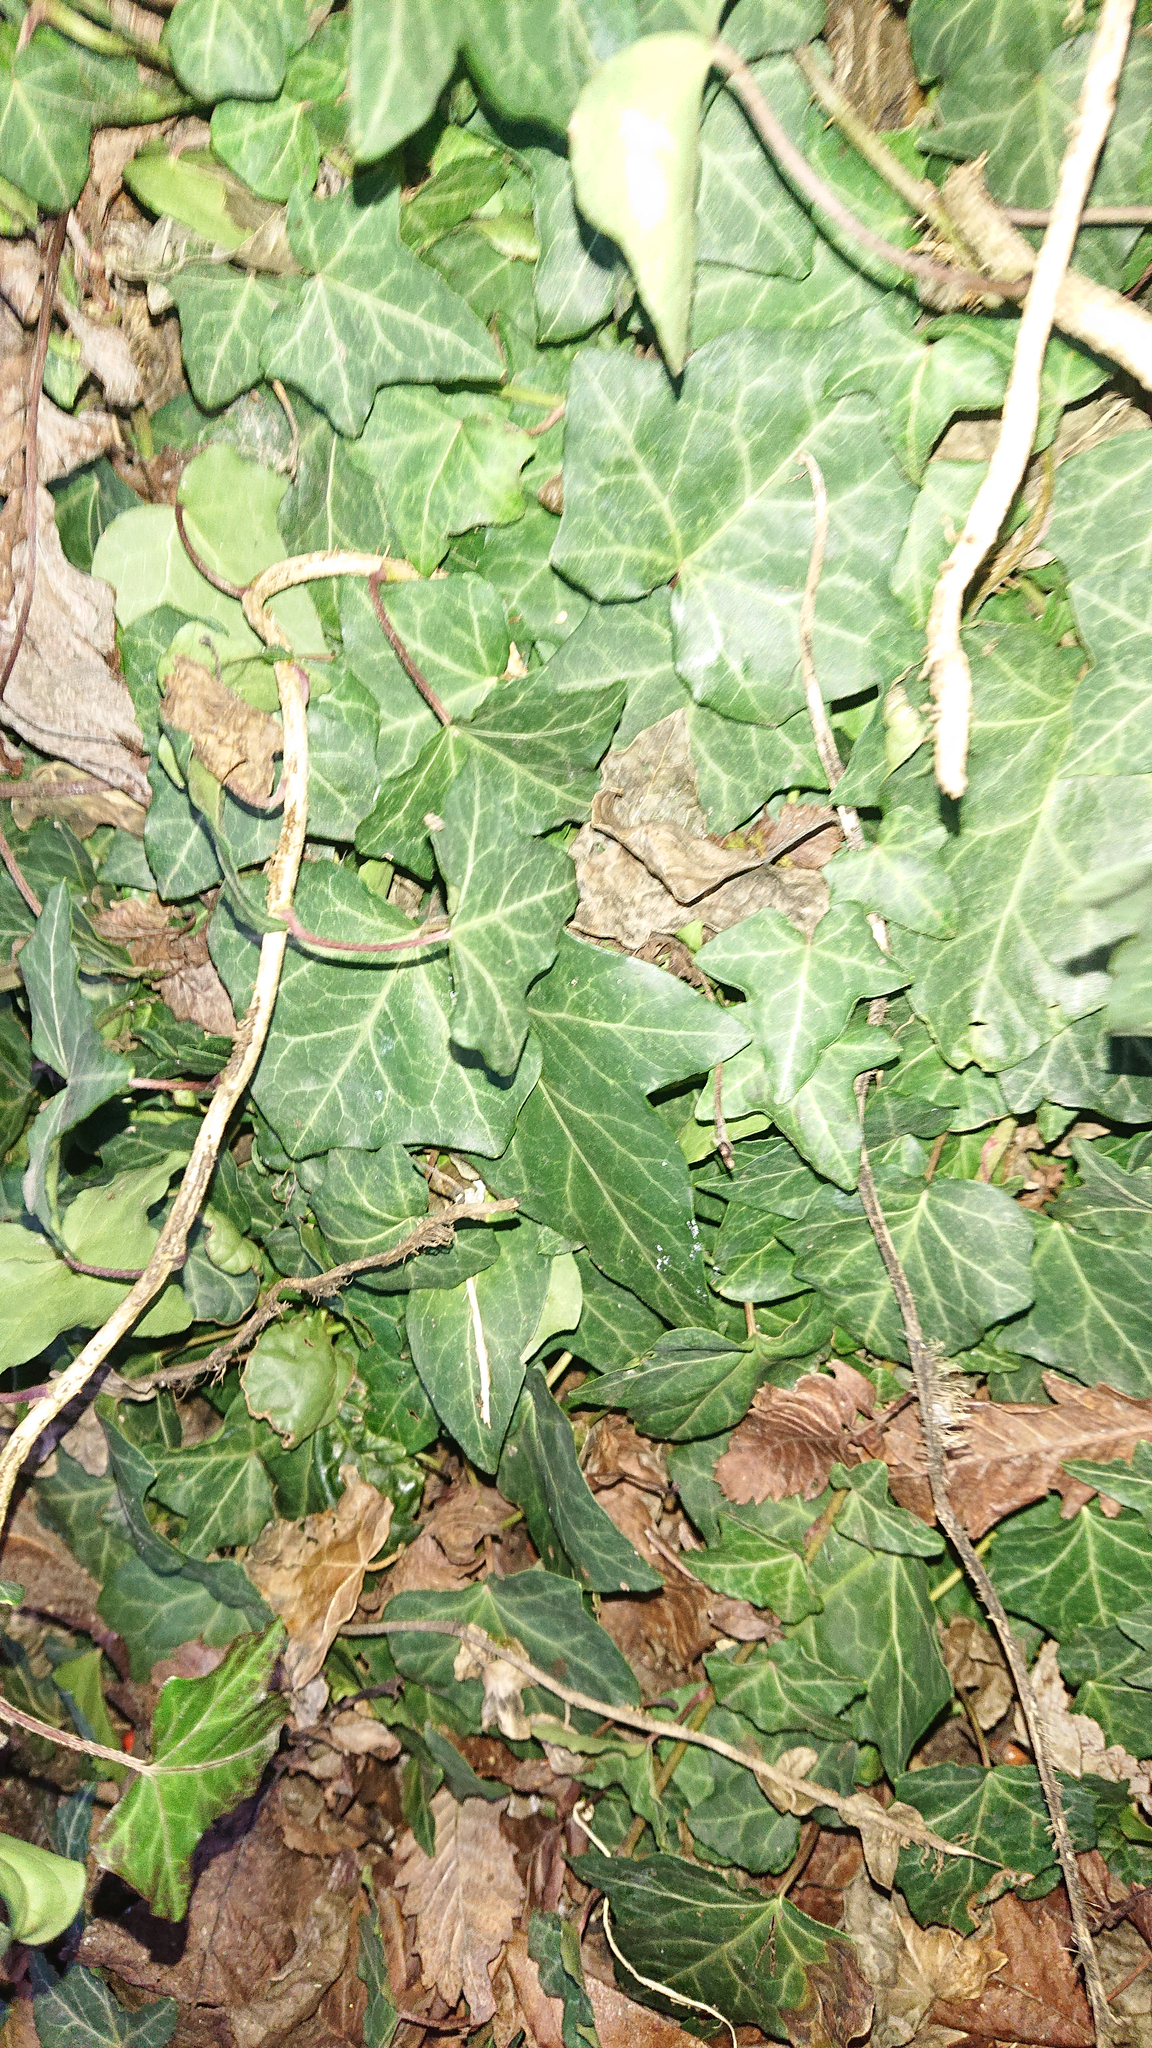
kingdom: Plantae
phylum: Tracheophyta
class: Magnoliopsida
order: Apiales
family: Araliaceae
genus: Hedera
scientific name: Hedera helix
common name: Ivy
